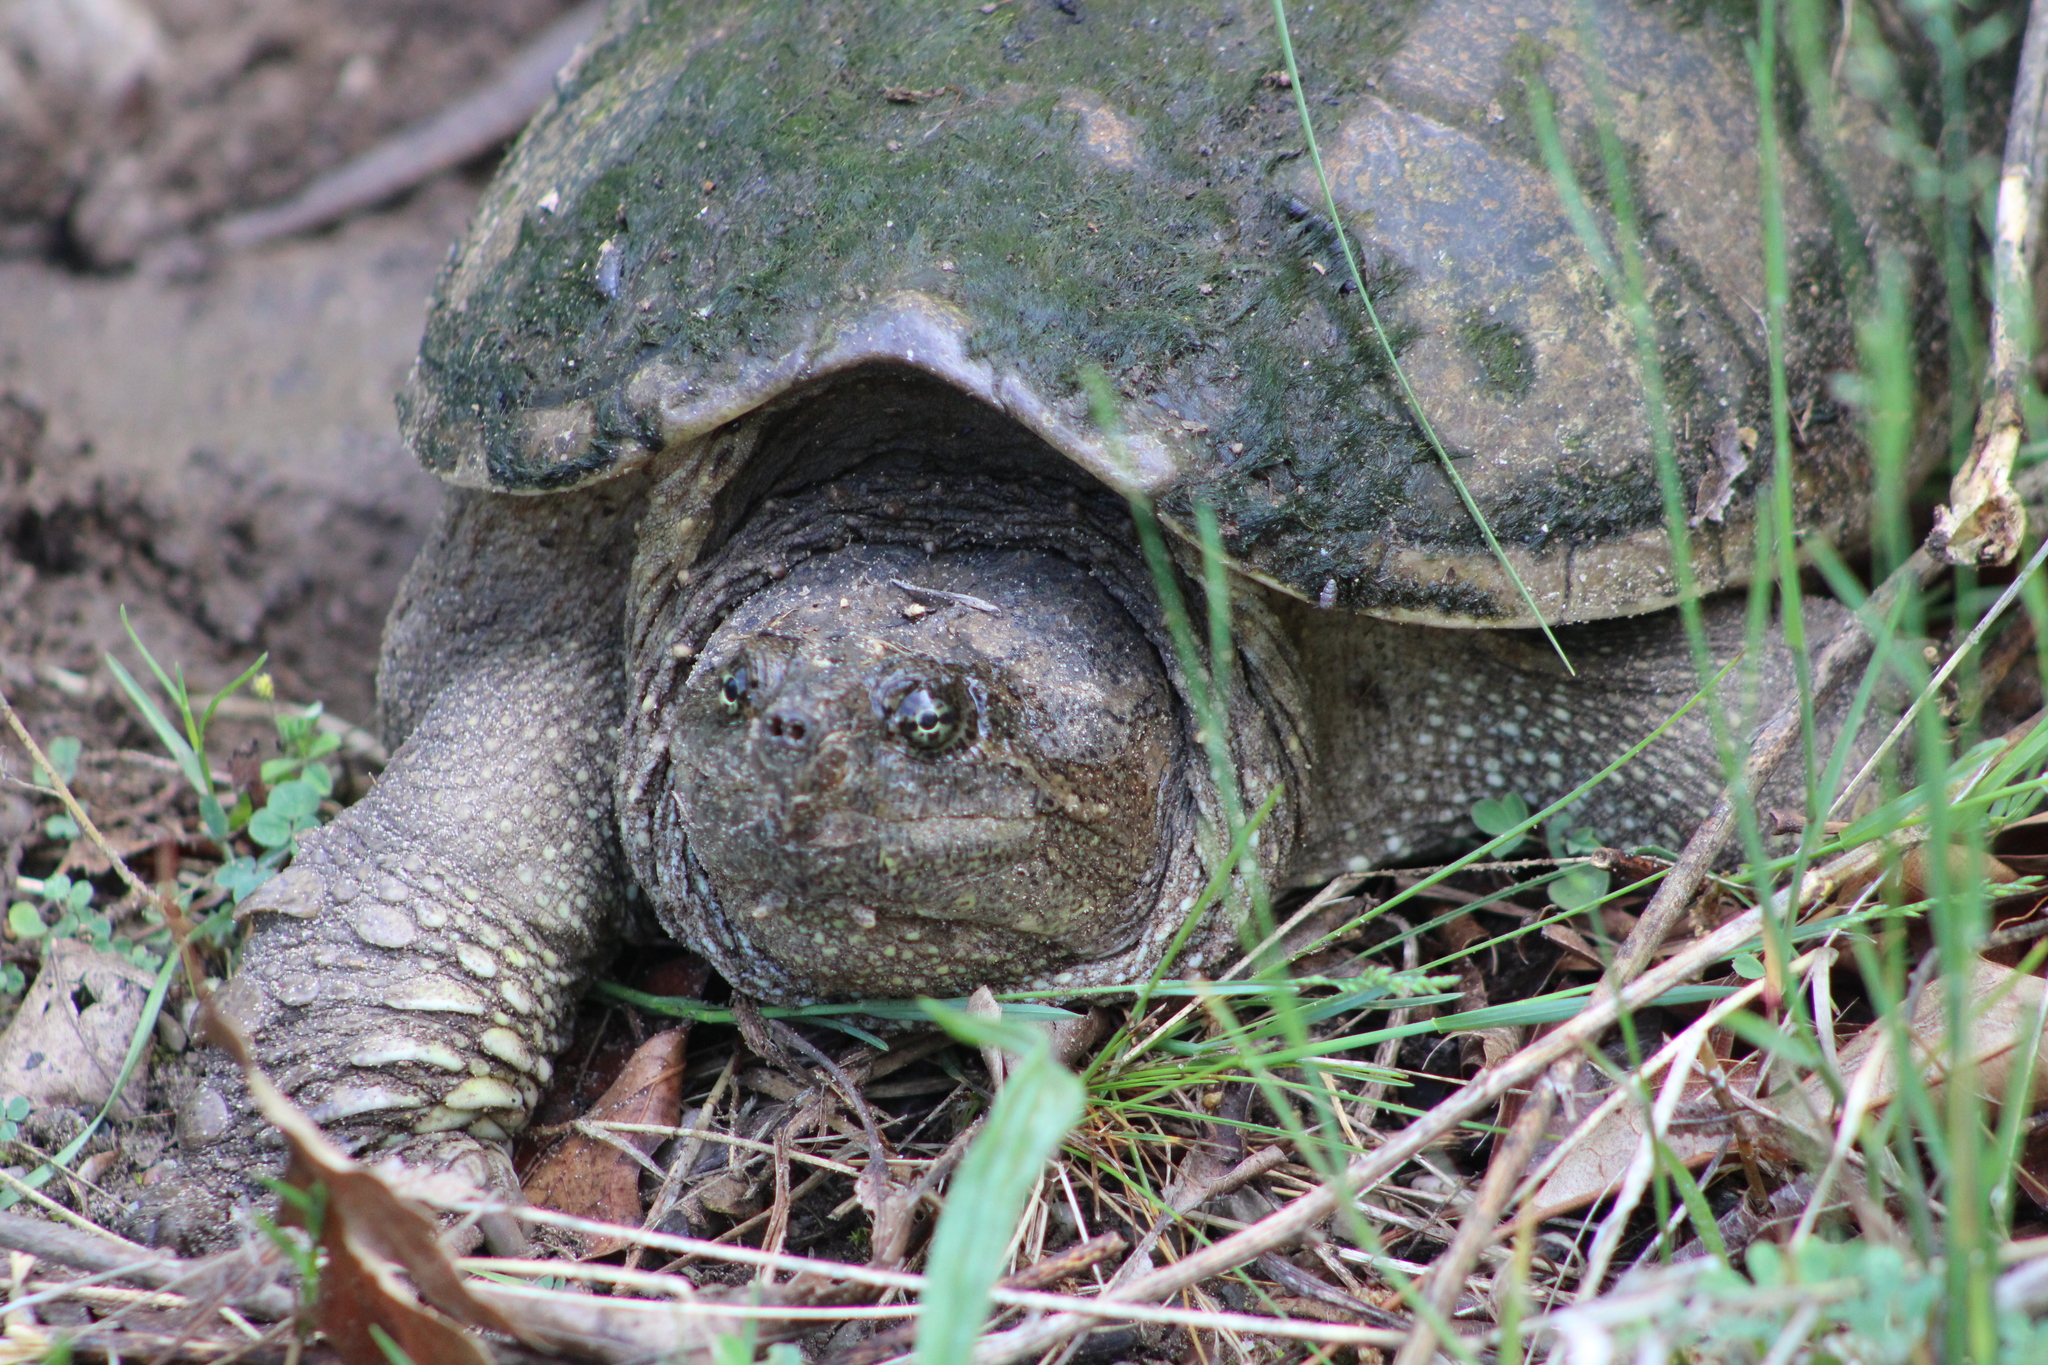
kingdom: Animalia
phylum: Chordata
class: Testudines
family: Chelydridae
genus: Chelydra
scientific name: Chelydra serpentina
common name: Common snapping turtle
